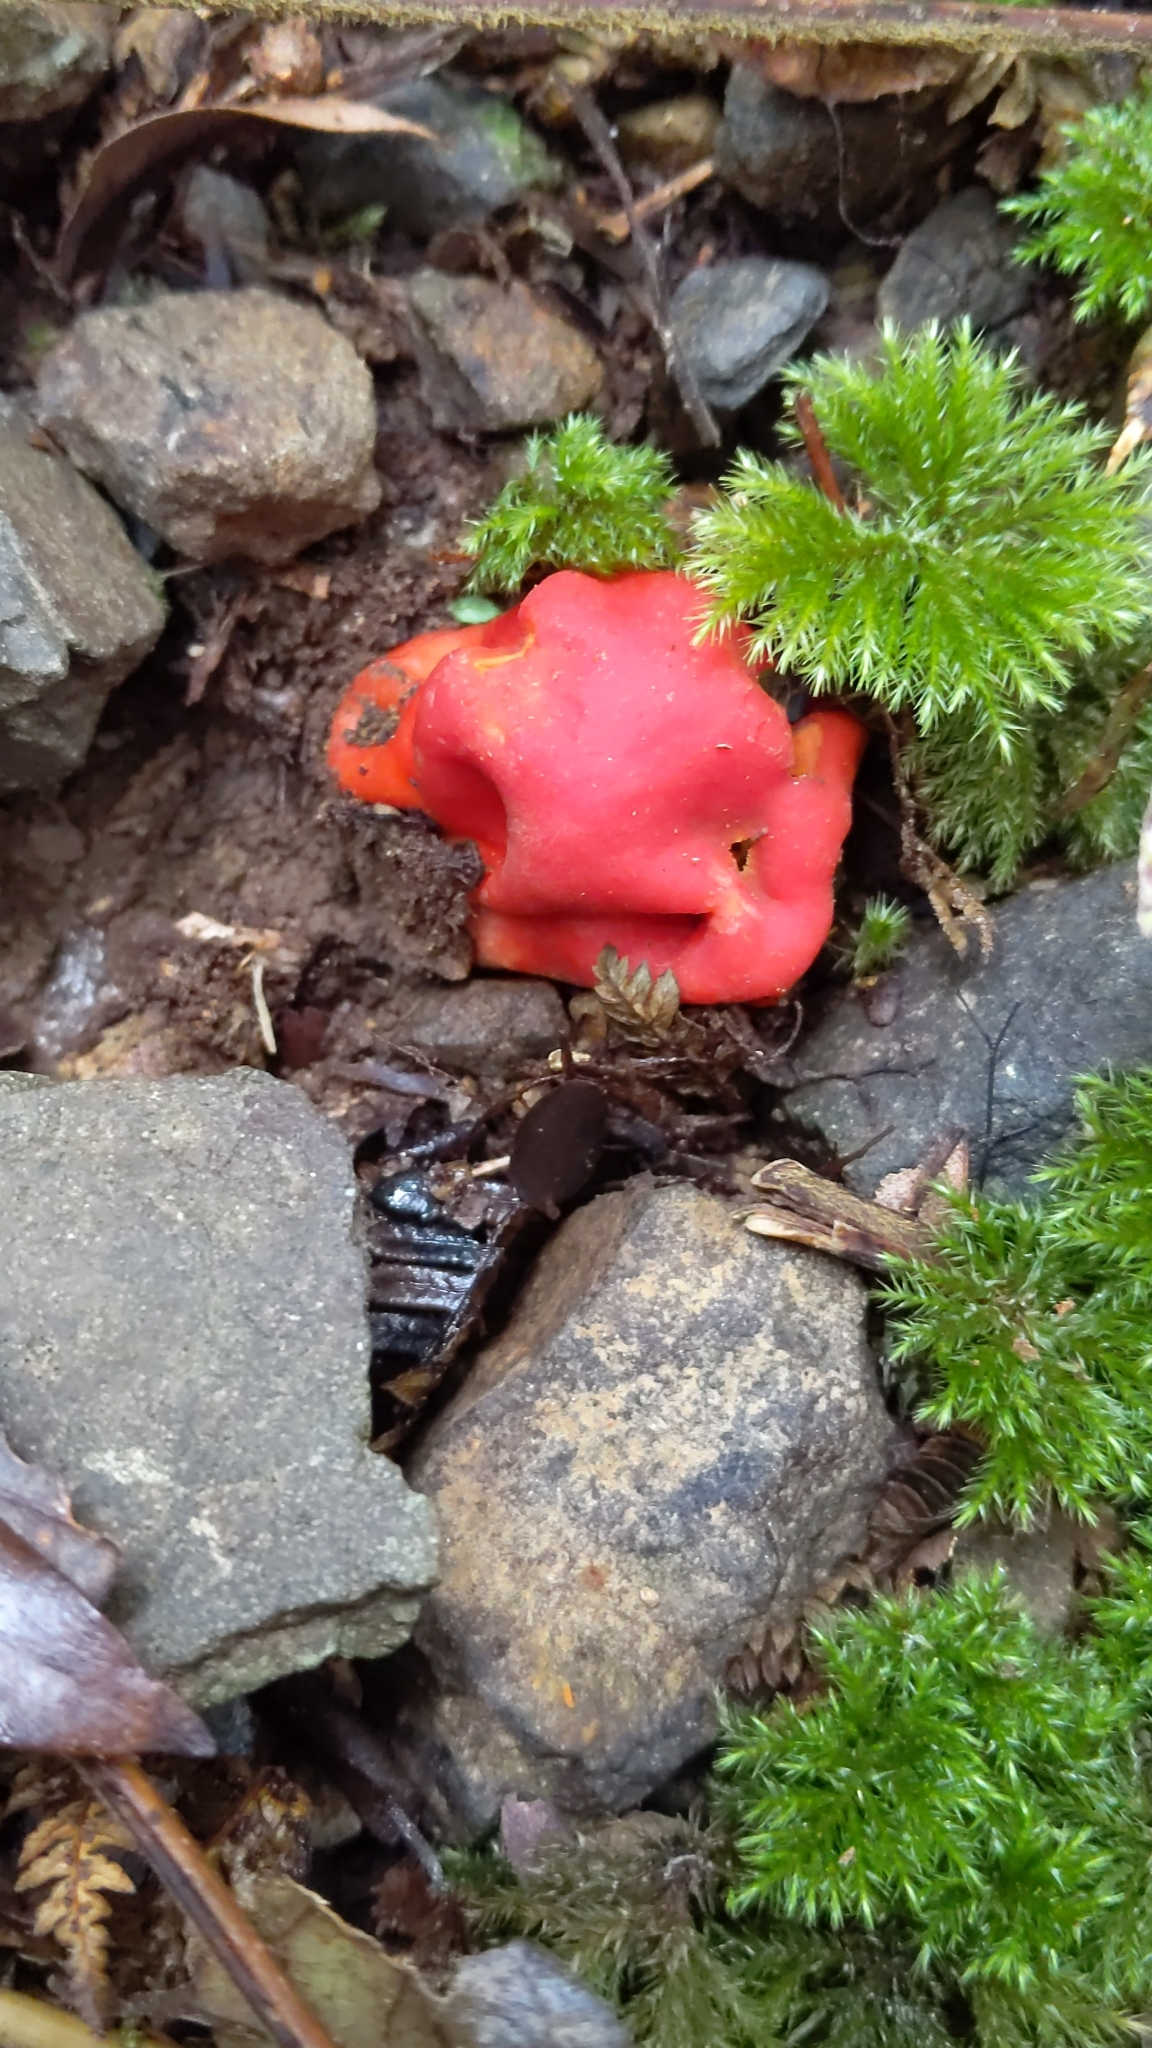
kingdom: Fungi
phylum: Ascomycota
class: Pezizomycetes
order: Pezizales
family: Pyronemataceae
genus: Paurocotylis
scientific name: Paurocotylis pila
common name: Scarlet berry truffle
